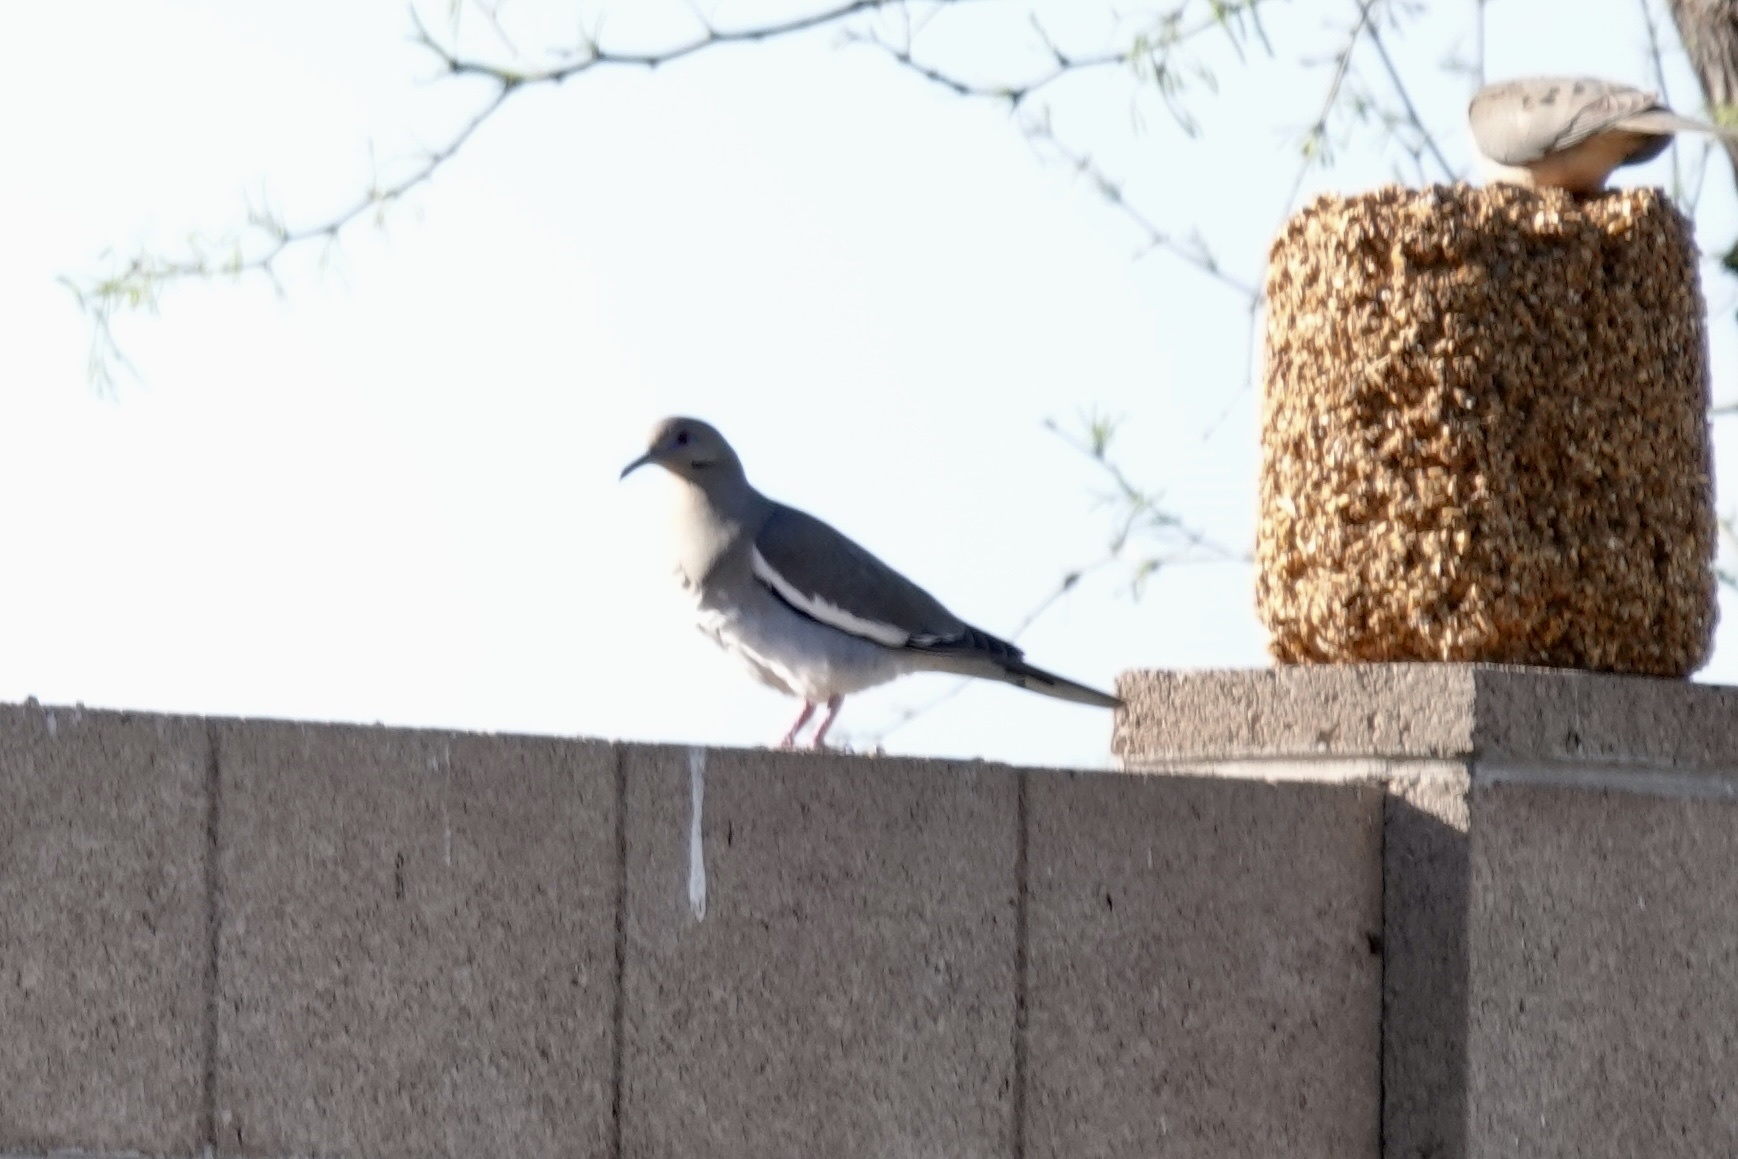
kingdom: Animalia
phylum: Chordata
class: Aves
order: Columbiformes
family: Columbidae
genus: Zenaida
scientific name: Zenaida asiatica
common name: White-winged dove
